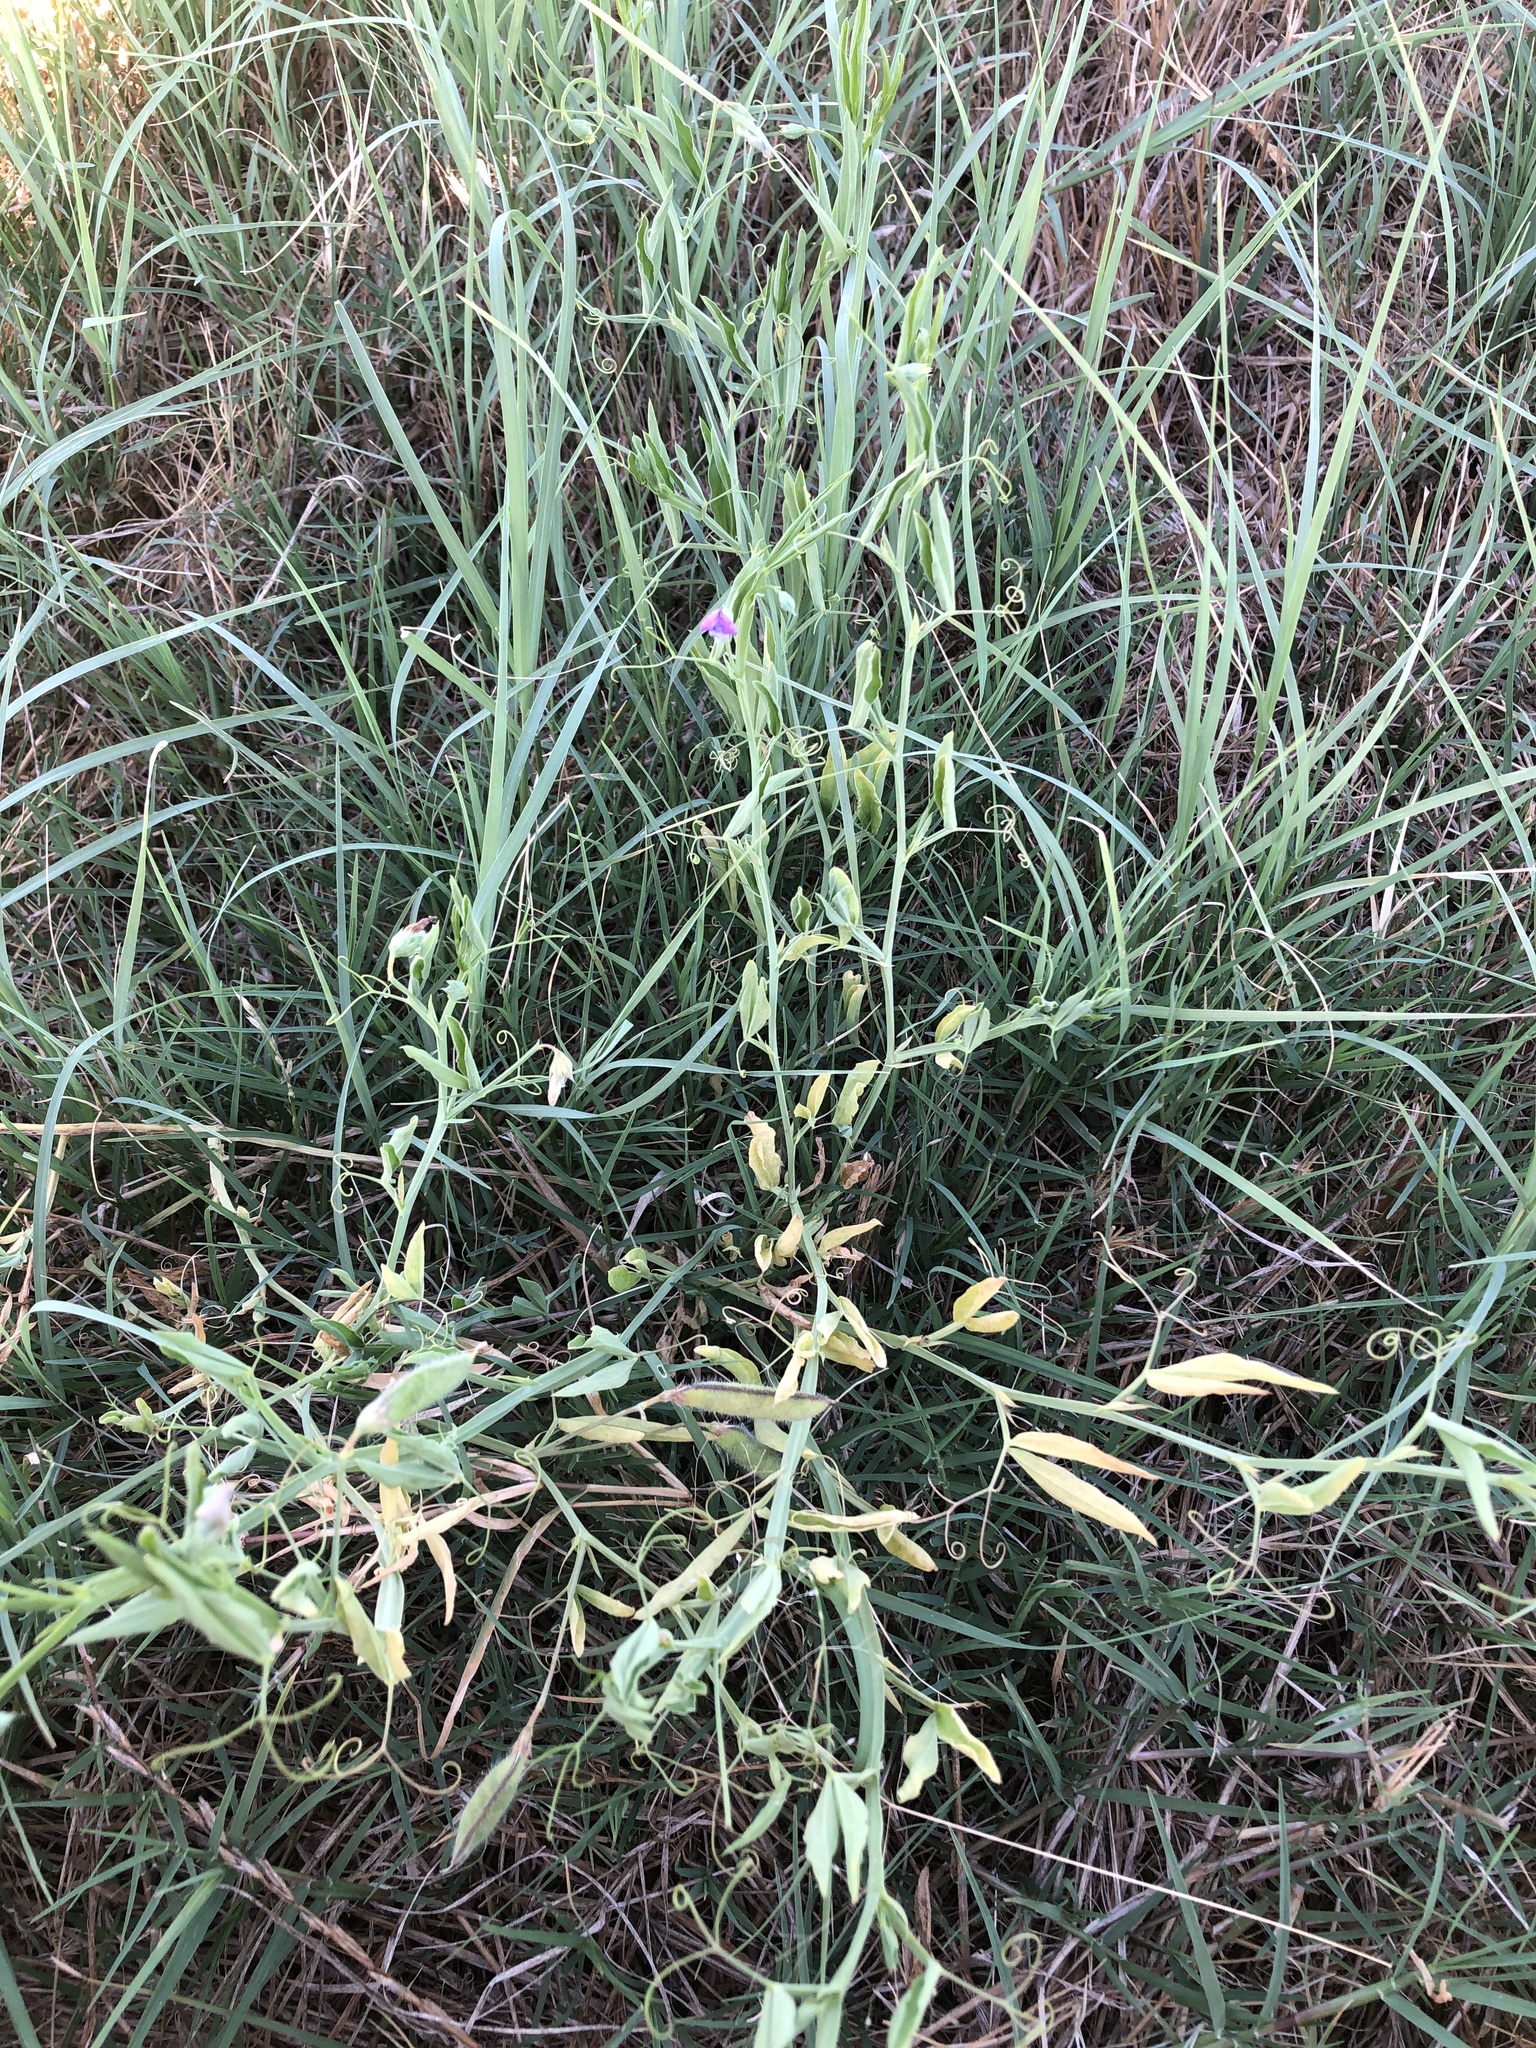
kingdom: Plantae
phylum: Tracheophyta
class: Magnoliopsida
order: Fabales
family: Fabaceae
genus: Lathyrus
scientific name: Lathyrus hirsutus
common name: Hairy vetchling
